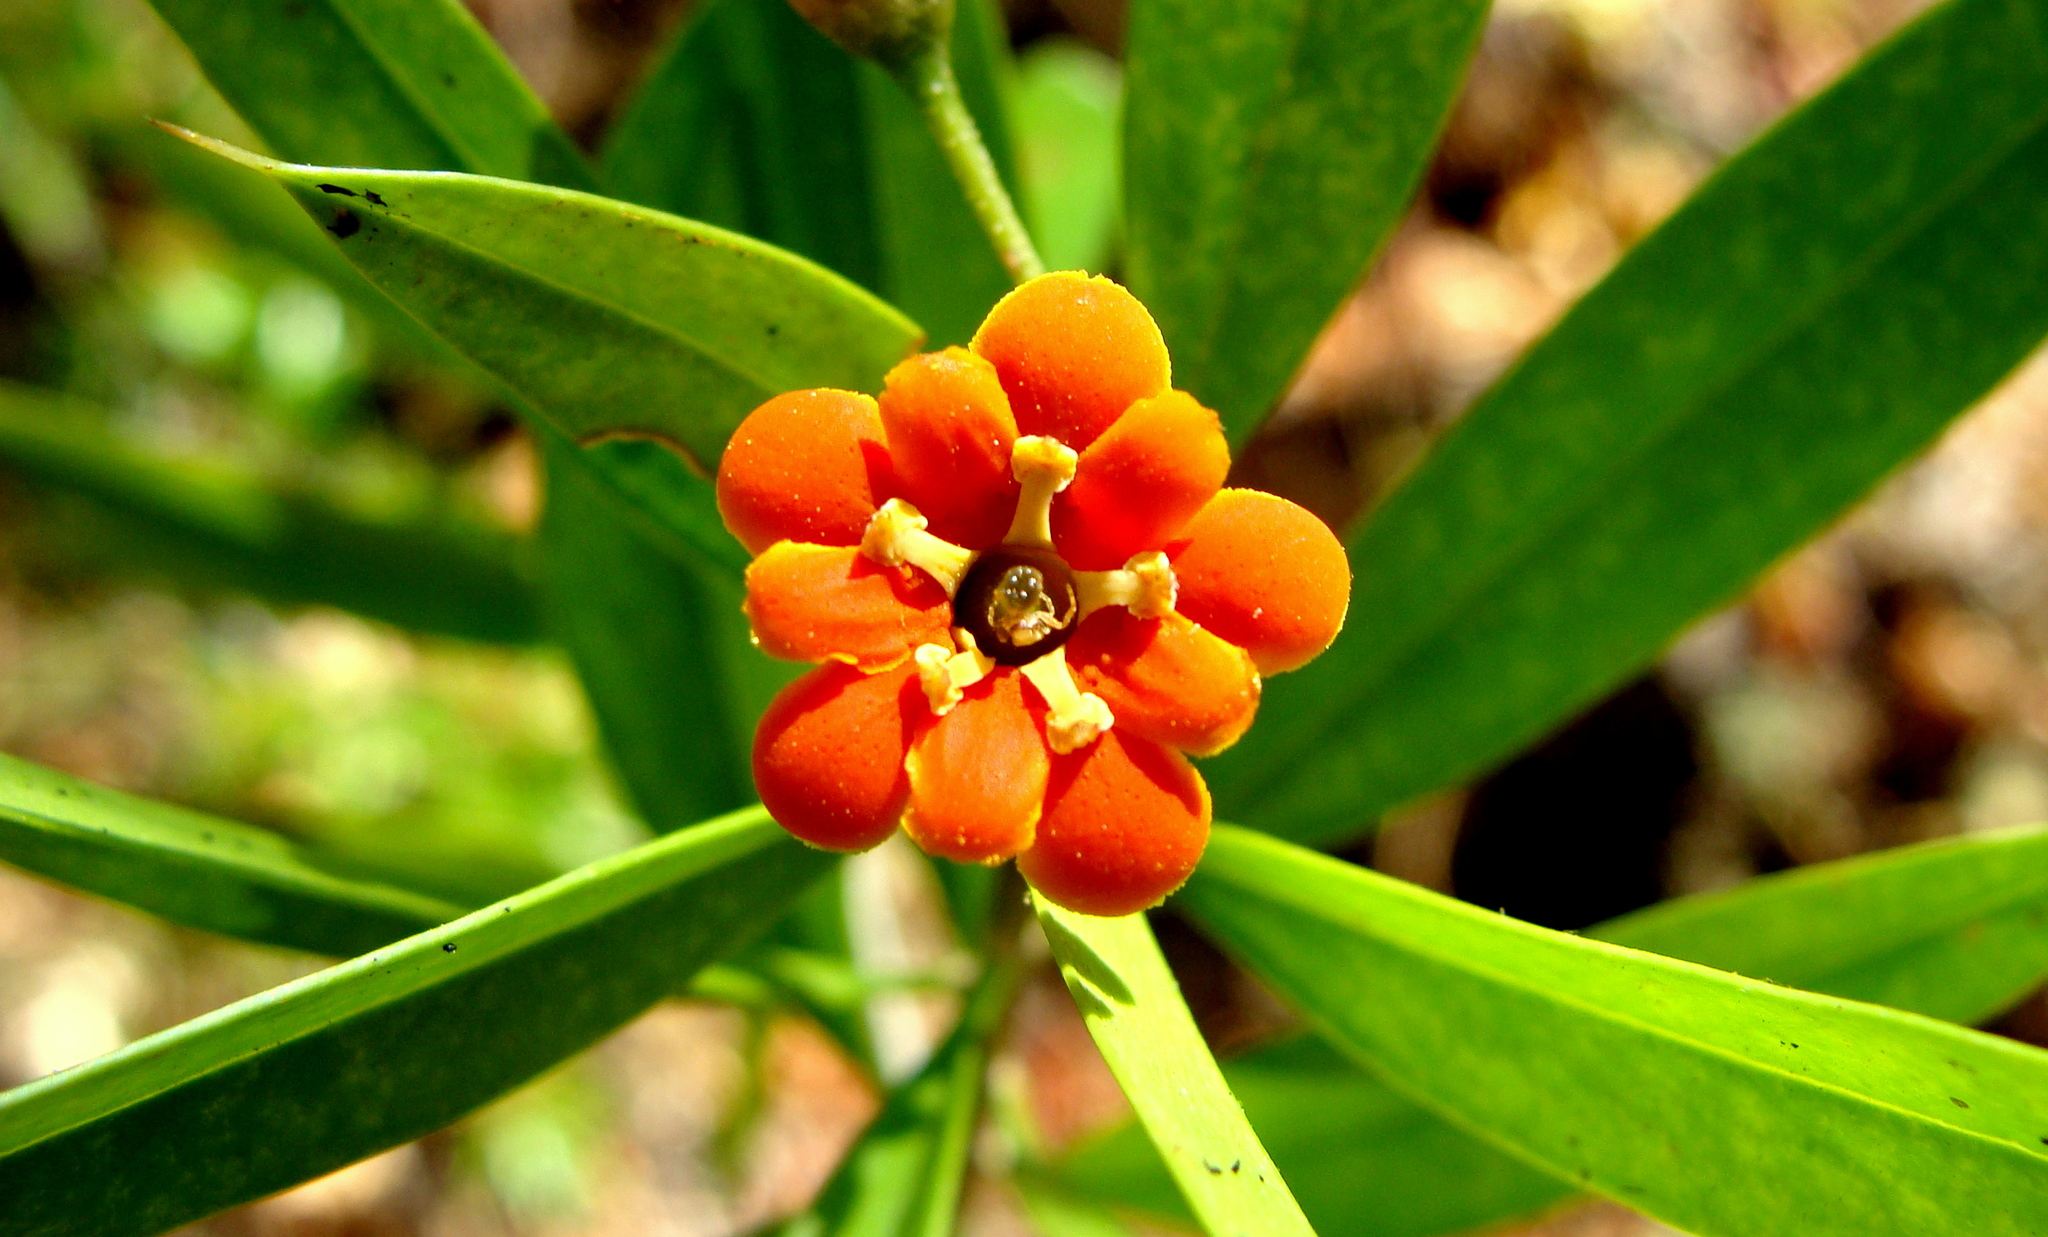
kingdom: Plantae
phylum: Tracheophyta
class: Magnoliopsida
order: Ericales
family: Primulaceae
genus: Bonellia
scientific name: Bonellia macrocarpa
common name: Primrose
